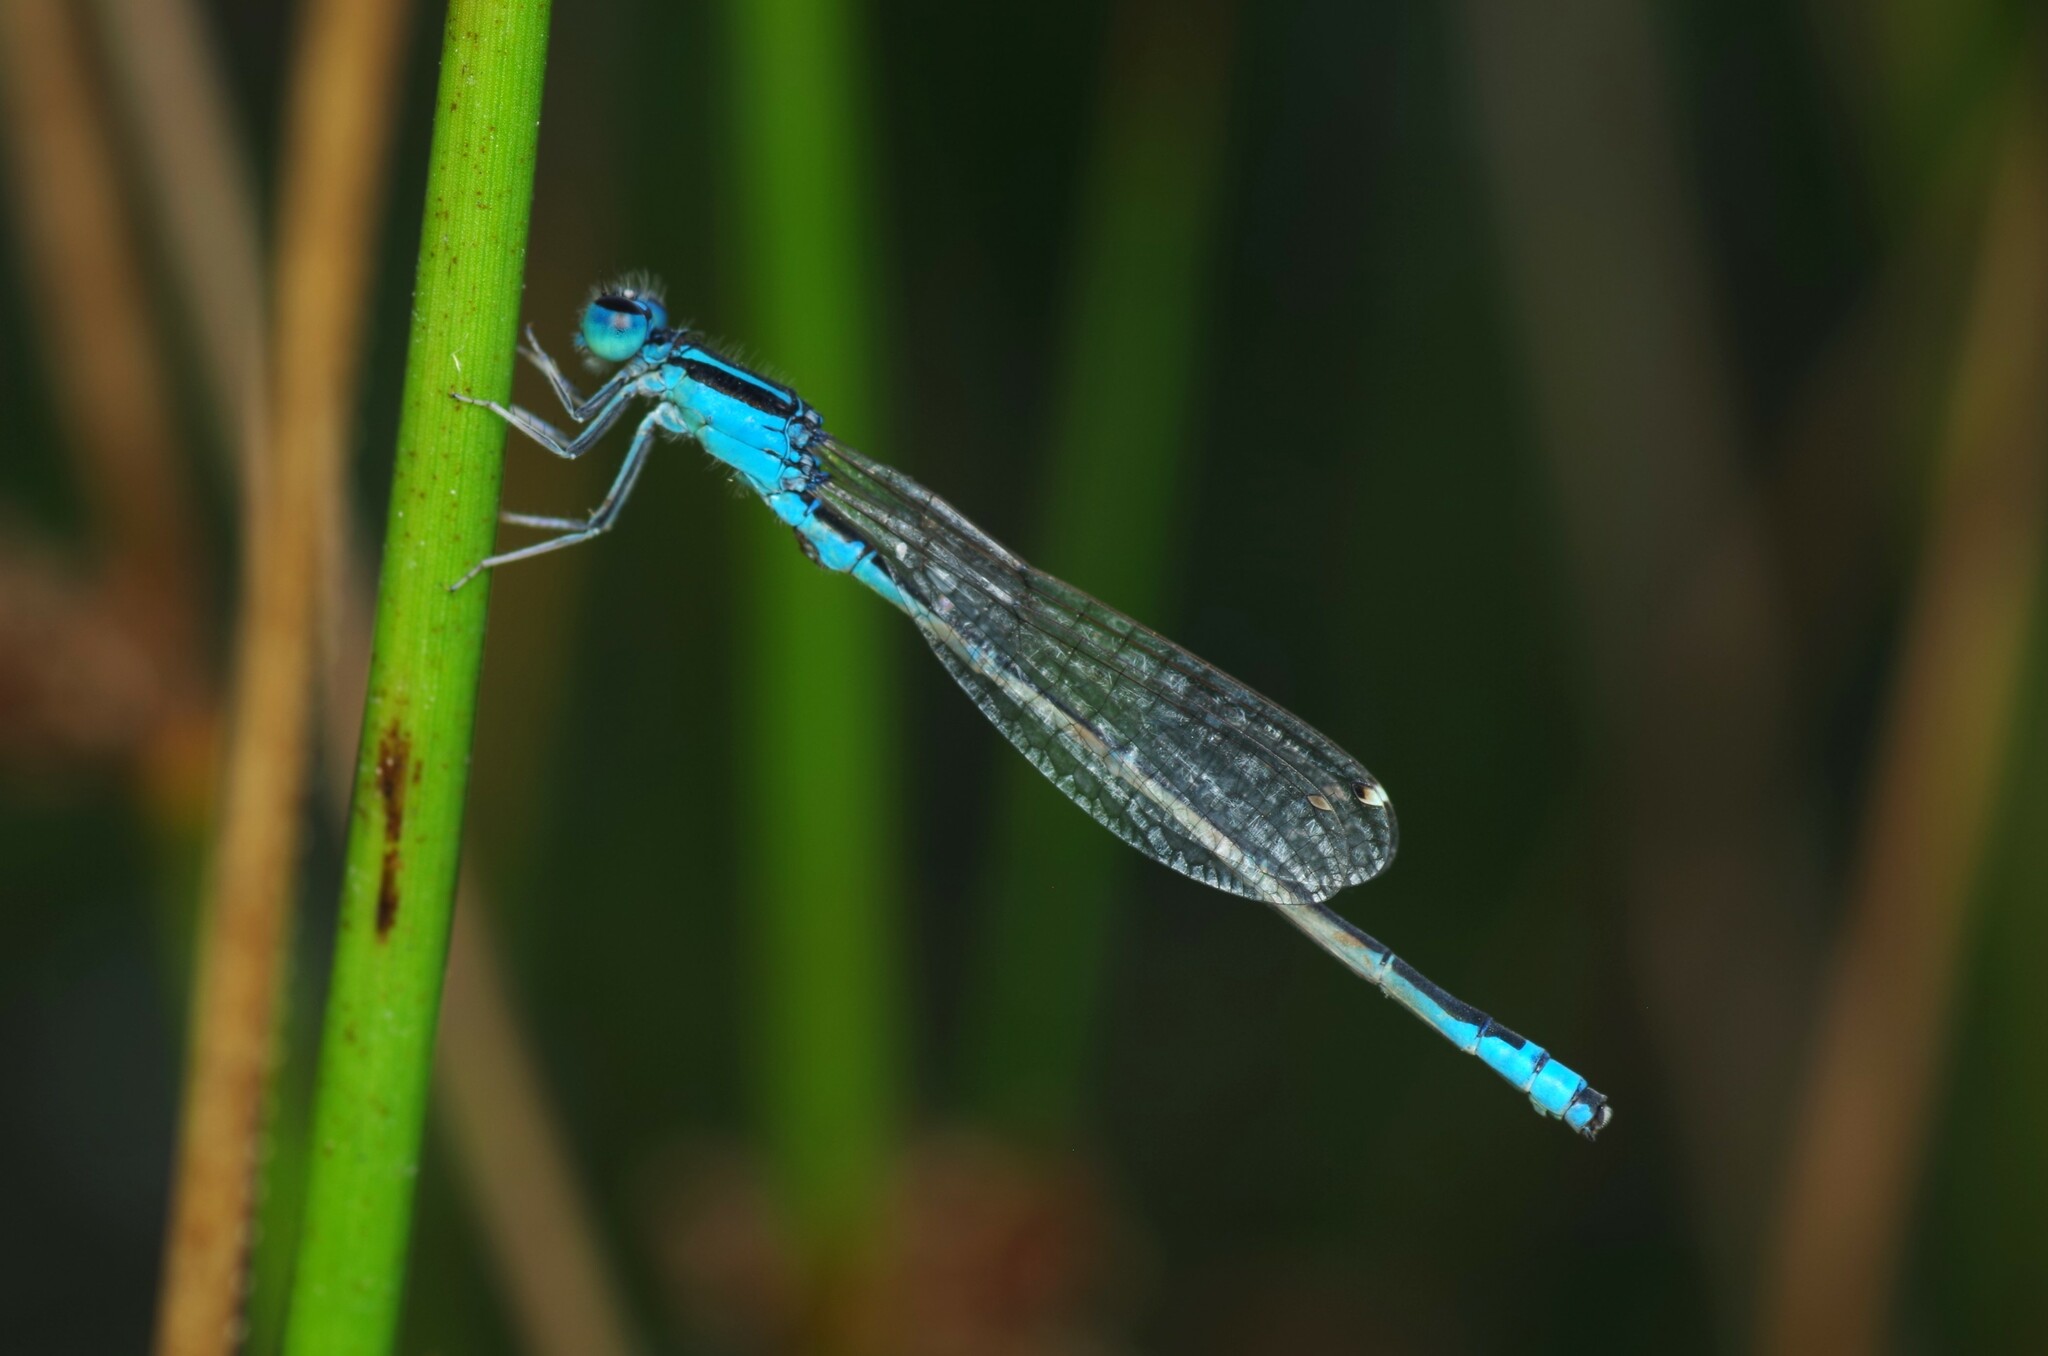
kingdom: Animalia
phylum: Arthropoda
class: Insecta
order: Odonata
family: Coenagrionidae
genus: Ischnura
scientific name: Ischnura pumilio
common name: Scarce blue-tailed damselfly
